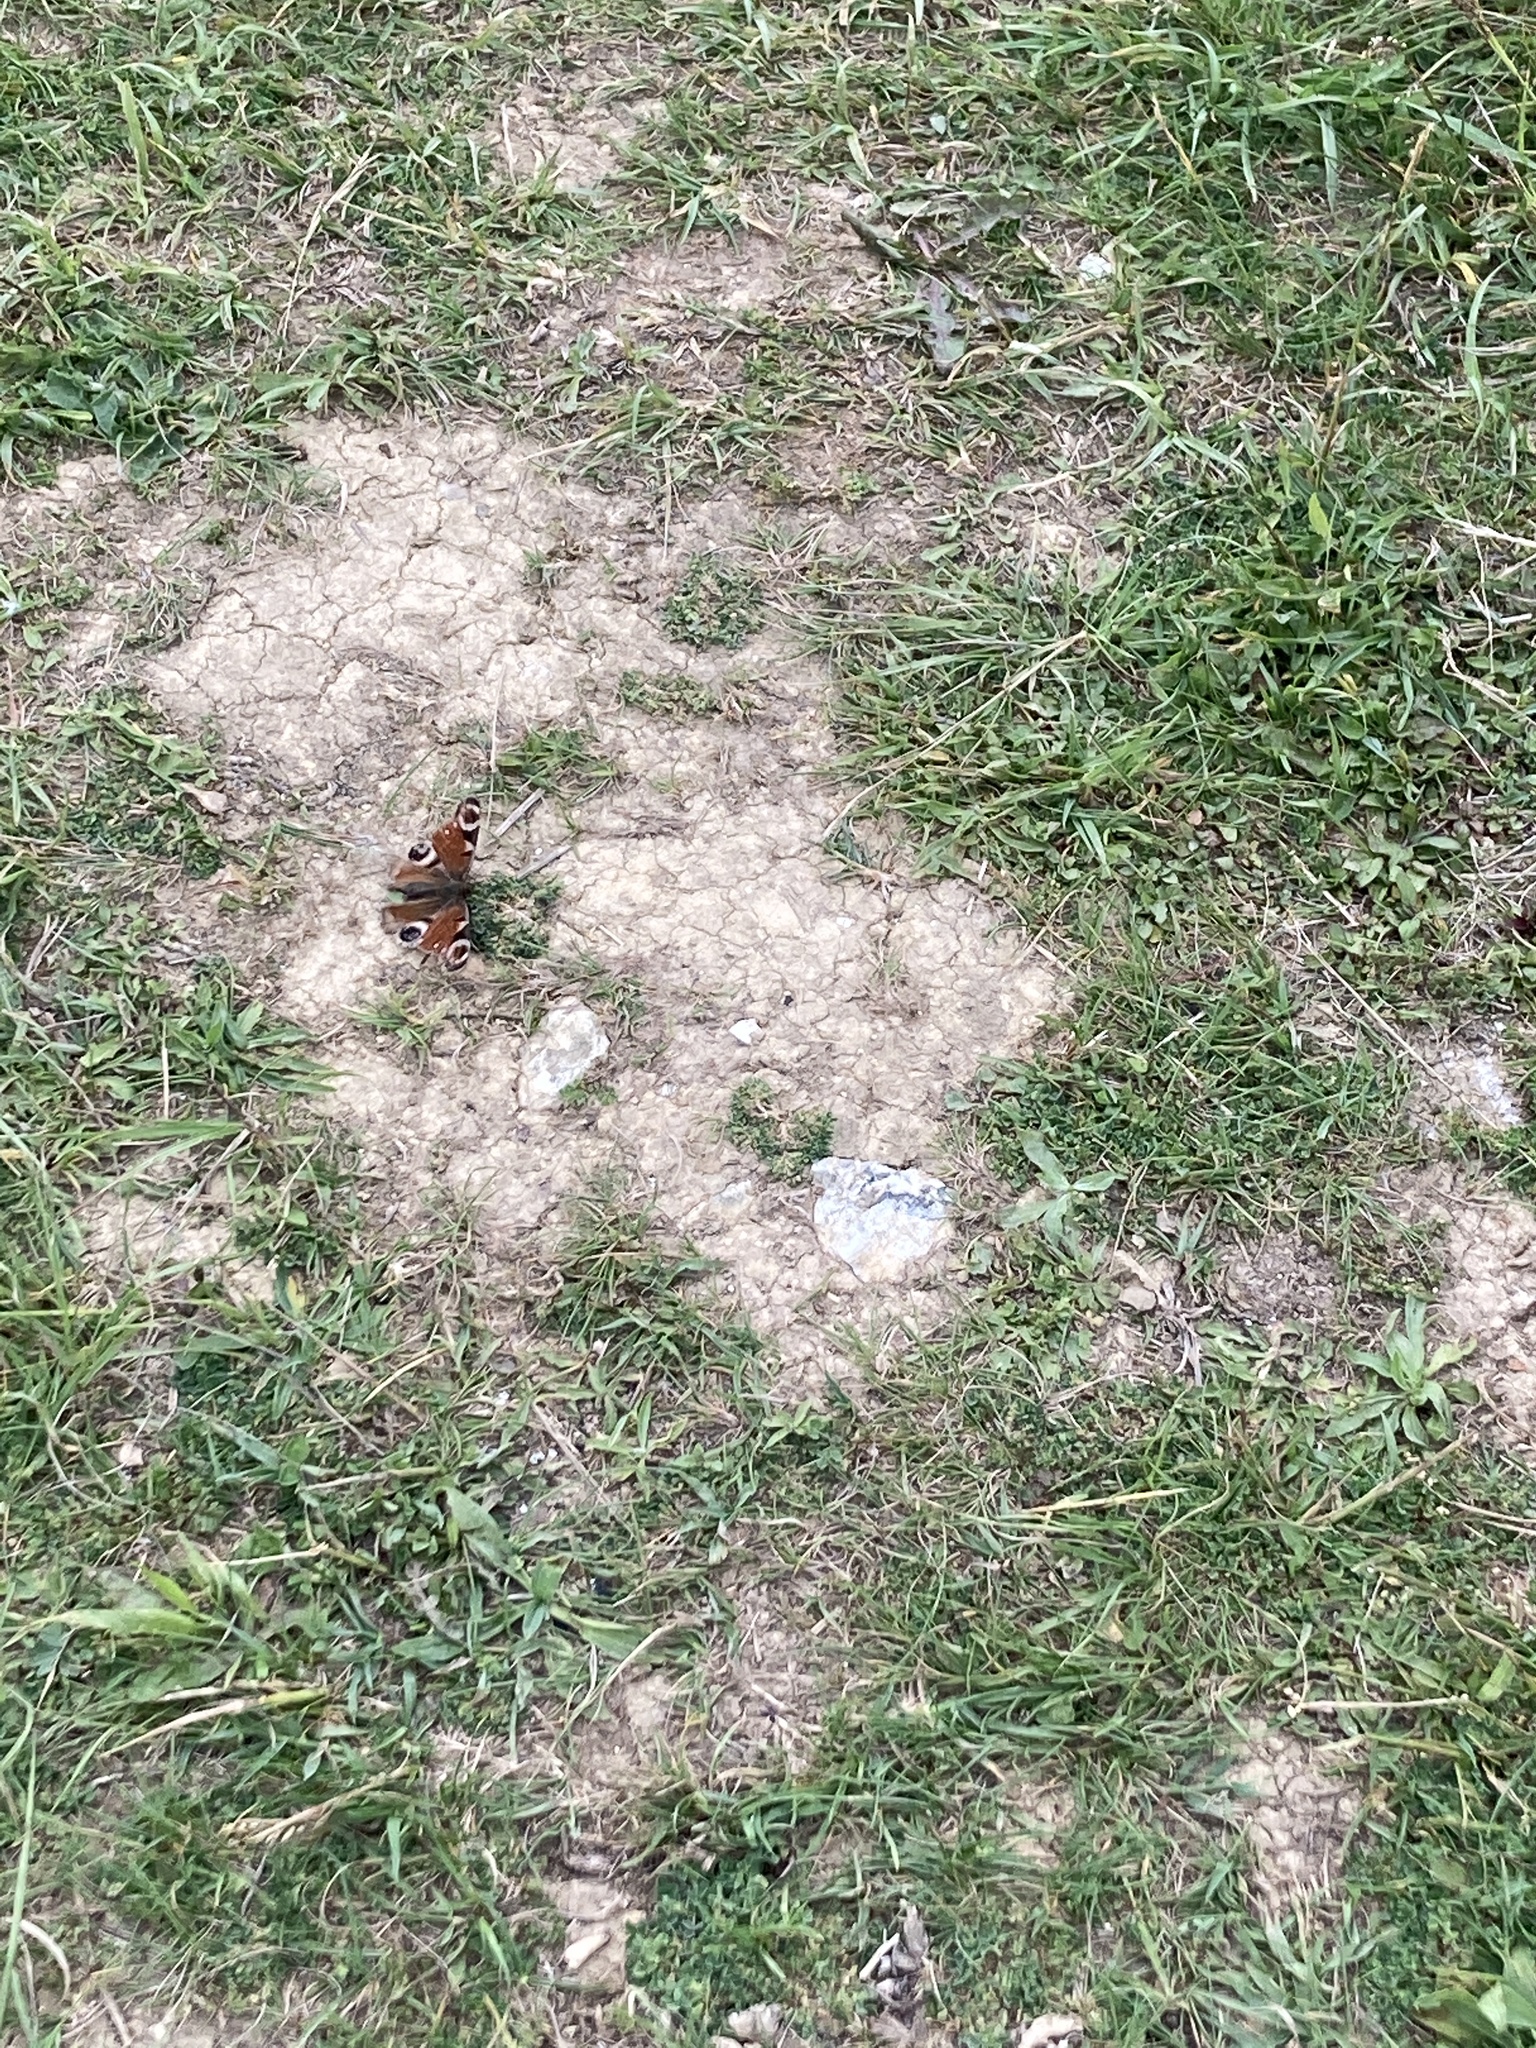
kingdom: Animalia
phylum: Arthropoda
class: Insecta
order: Lepidoptera
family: Nymphalidae
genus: Aglais
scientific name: Aglais io
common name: Peacock
